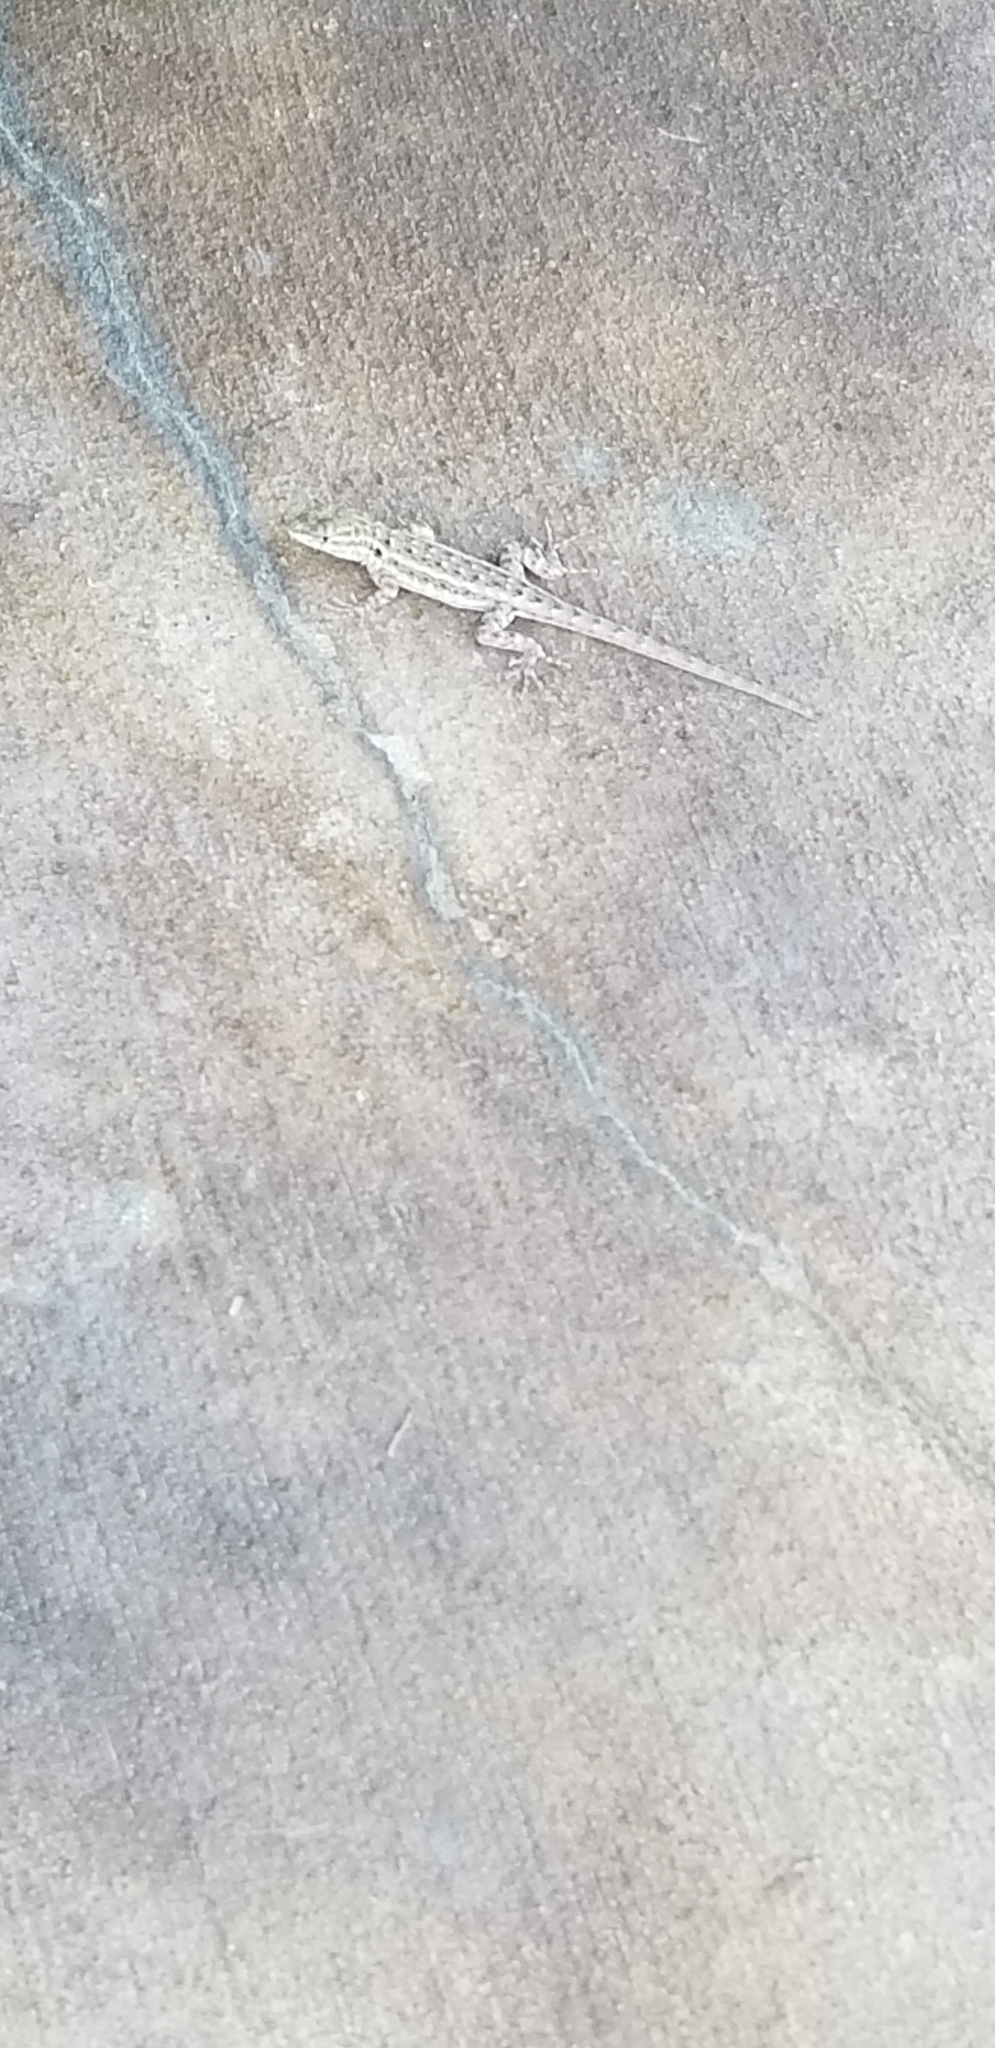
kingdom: Animalia
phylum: Chordata
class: Squamata
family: Phrynosomatidae
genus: Uta
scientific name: Uta stansburiana
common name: Side-blotched lizard
